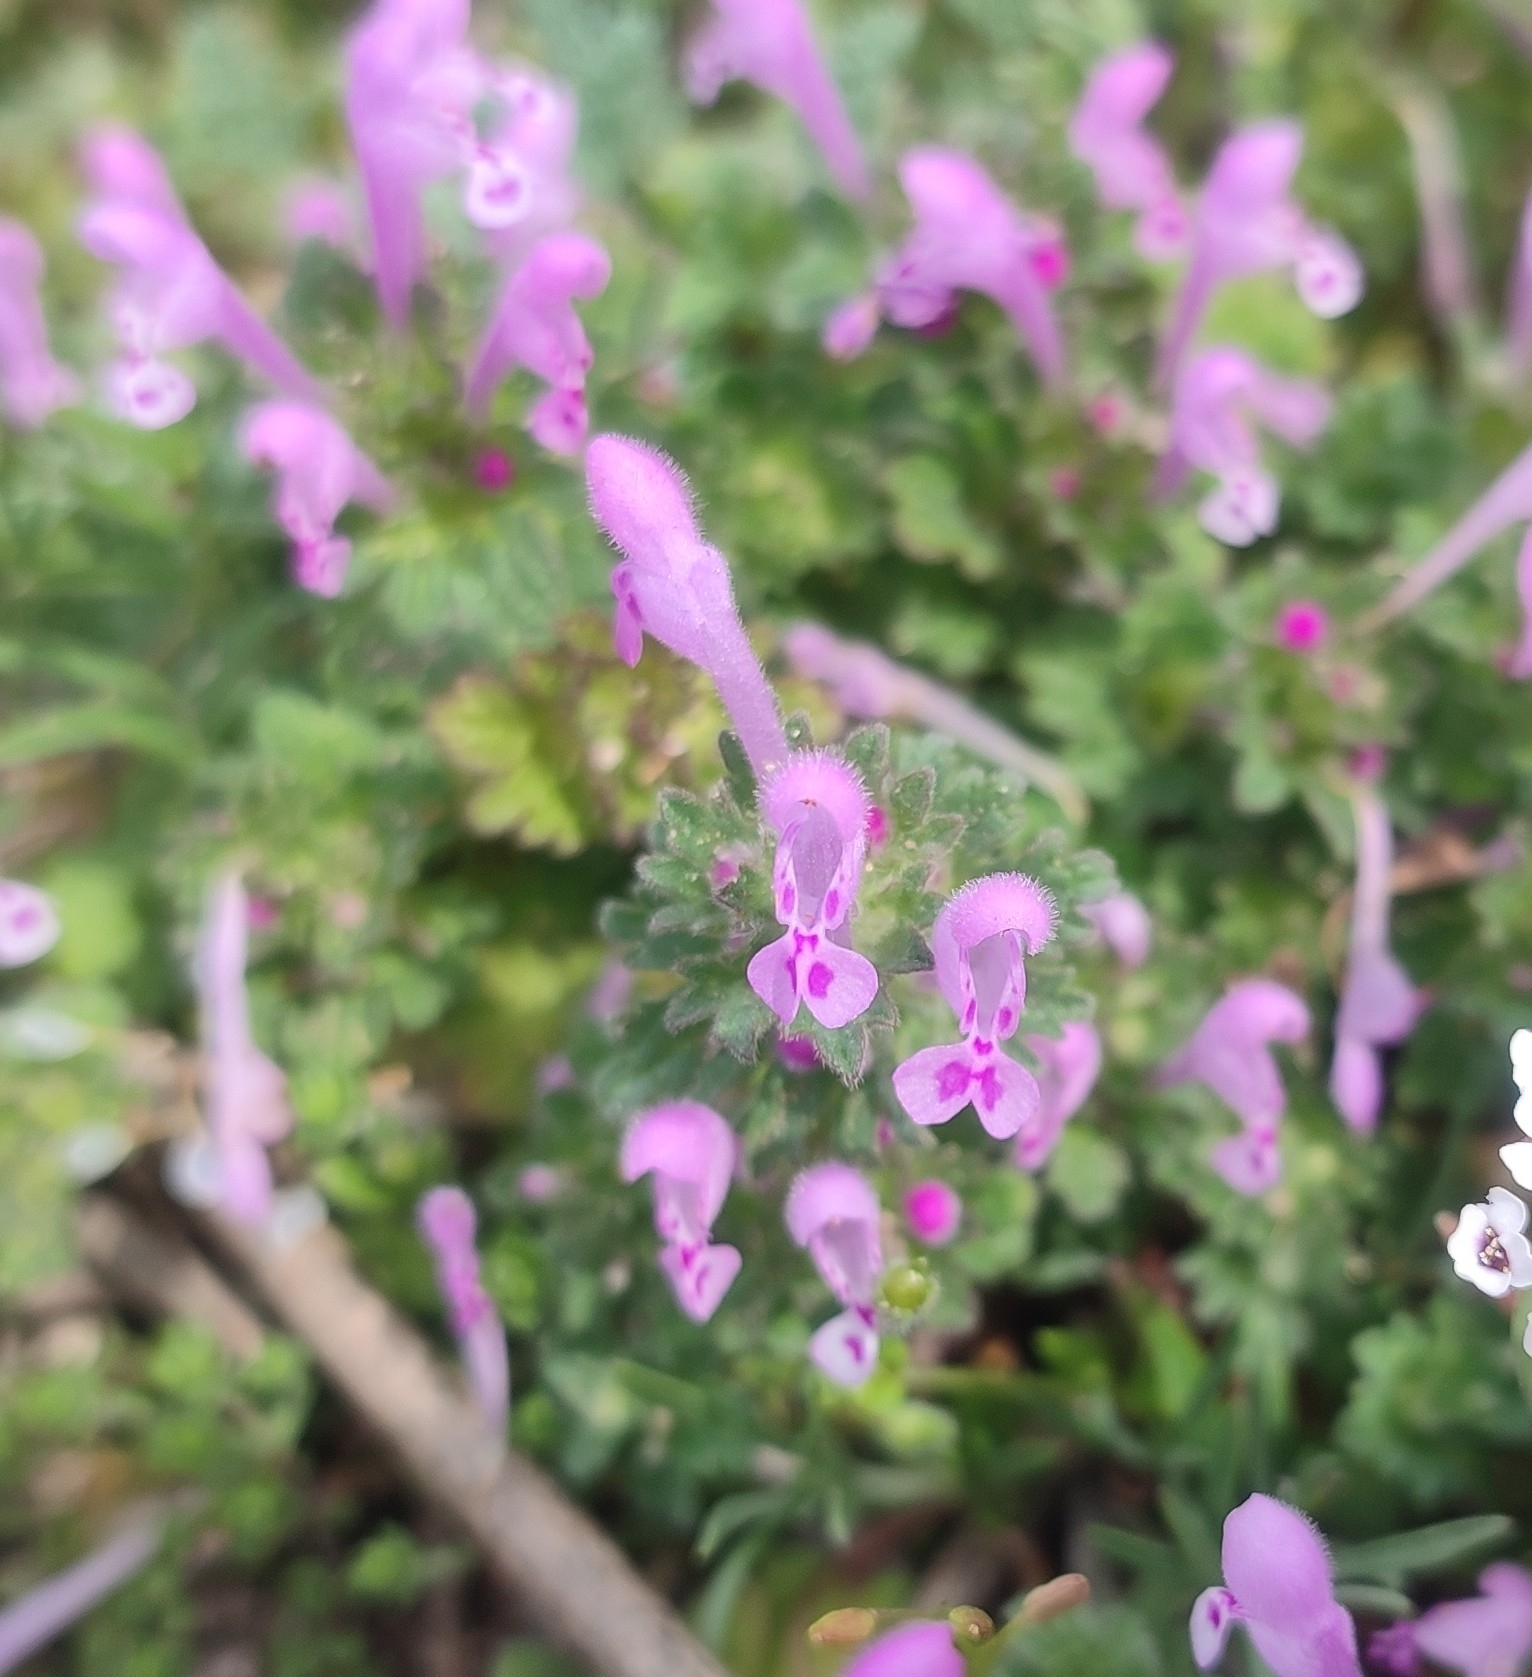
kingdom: Plantae
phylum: Tracheophyta
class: Magnoliopsida
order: Lamiales
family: Lamiaceae
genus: Lamium
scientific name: Lamium amplexicaule
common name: Henbit dead-nettle
